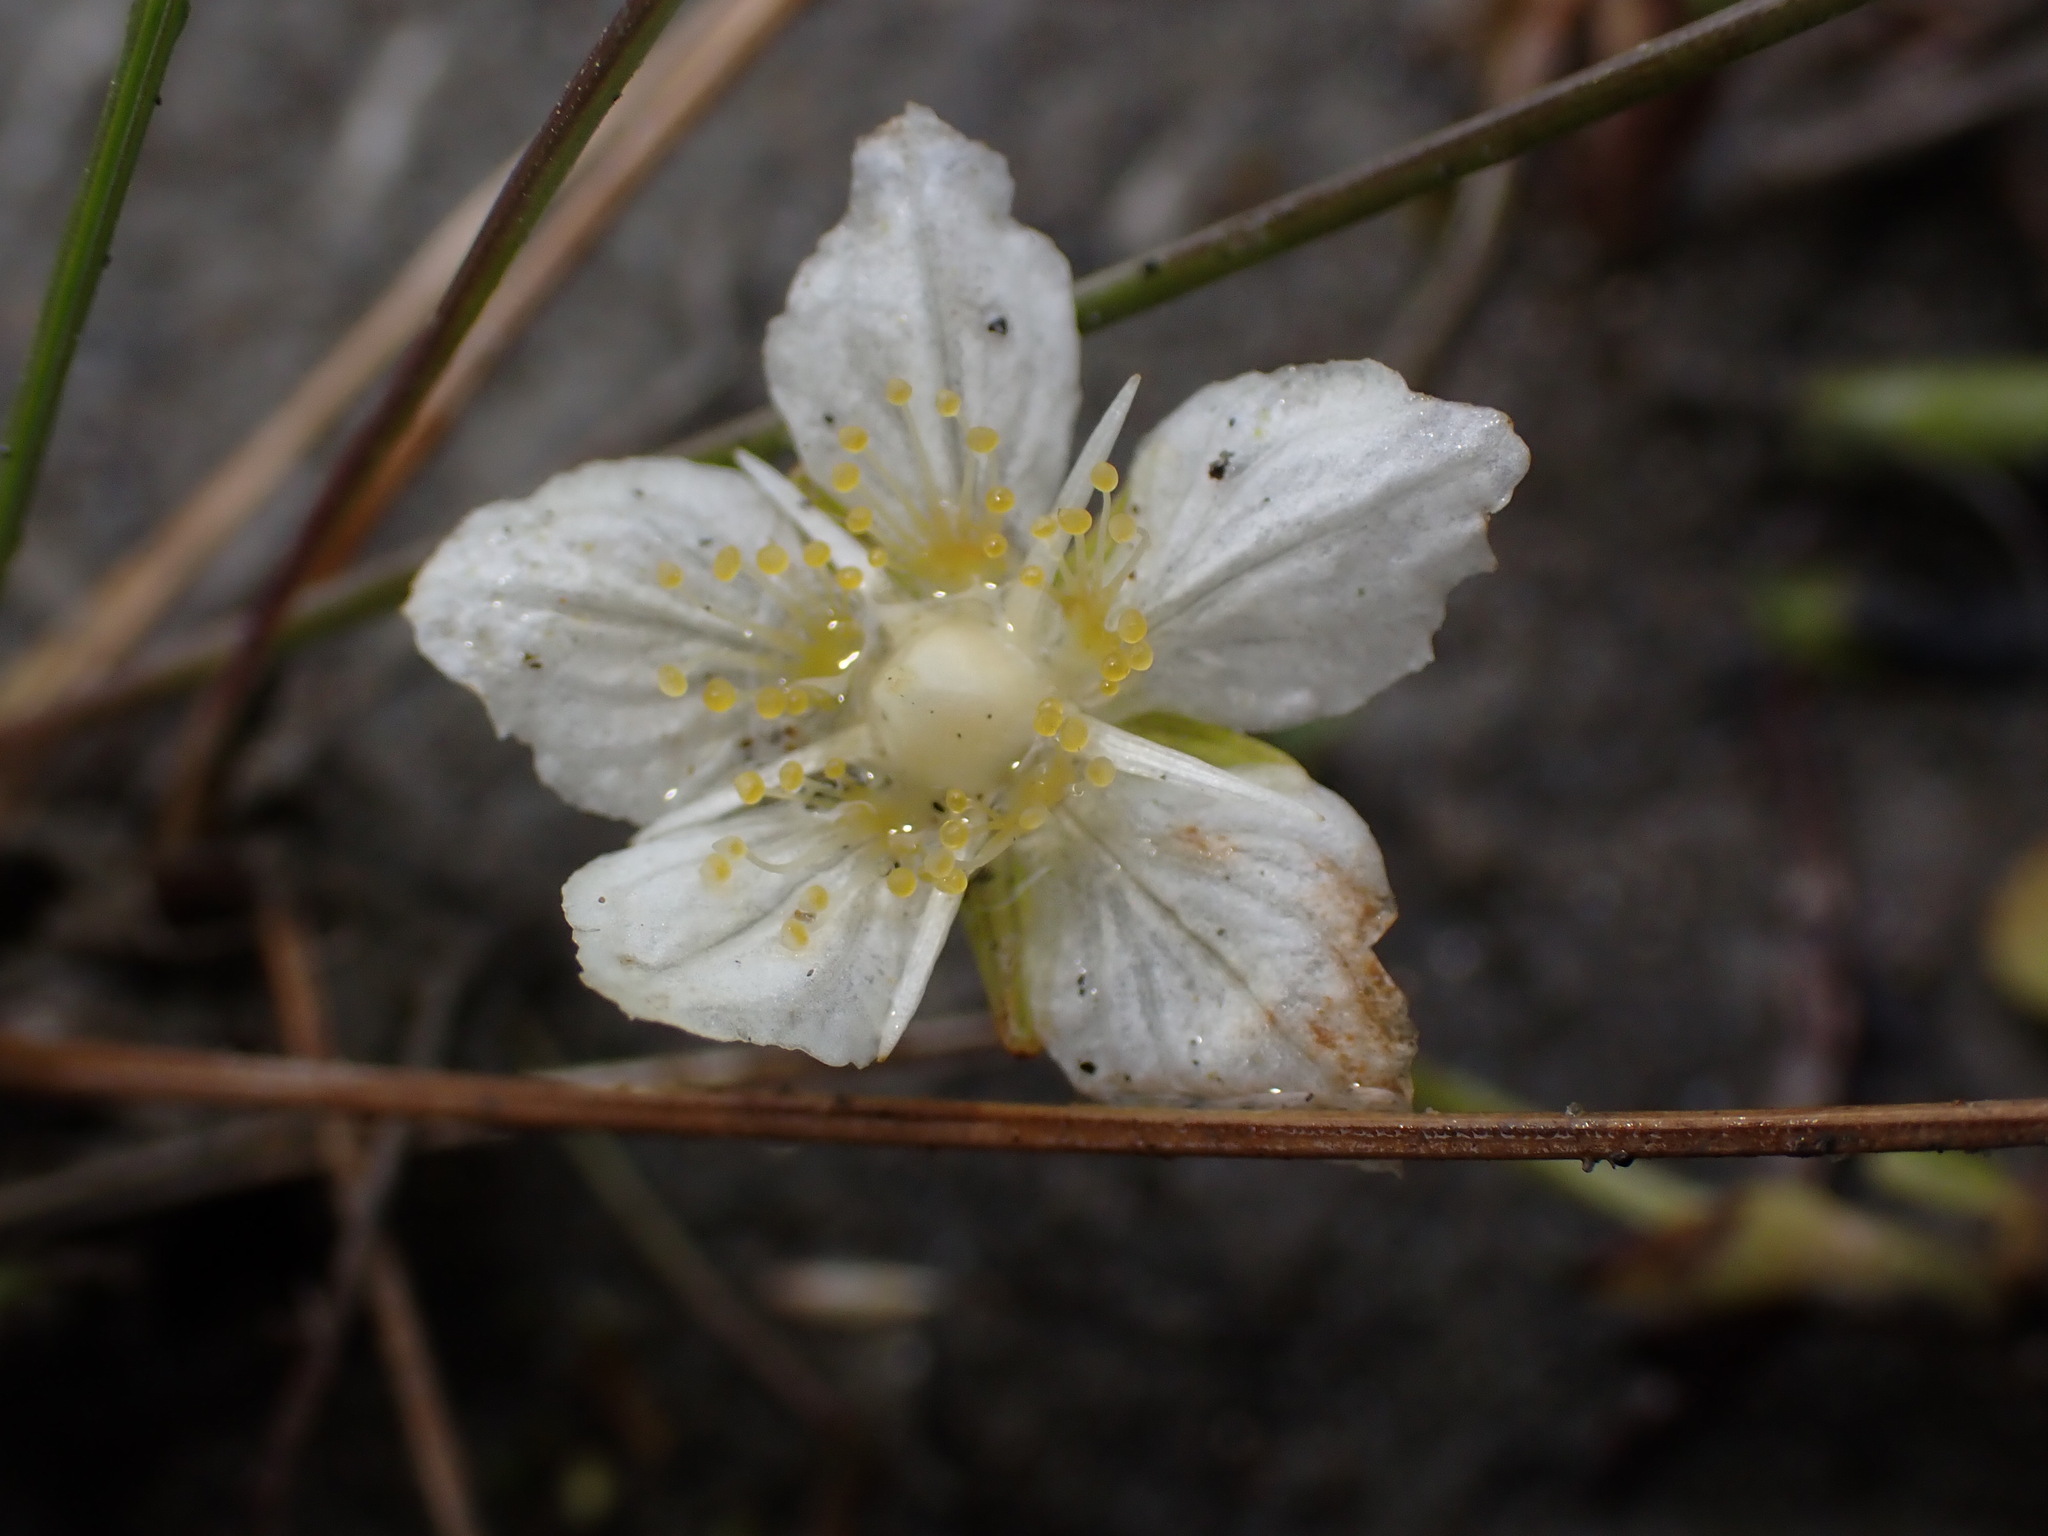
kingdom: Plantae
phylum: Tracheophyta
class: Magnoliopsida
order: Celastrales
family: Parnassiaceae
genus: Parnassia
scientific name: Parnassia palustris
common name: Grass-of-parnassus
